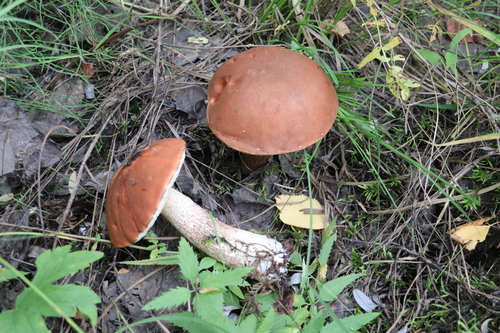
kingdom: Fungi
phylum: Basidiomycota
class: Agaricomycetes
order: Boletales
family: Boletaceae
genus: Leccinum
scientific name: Leccinum
